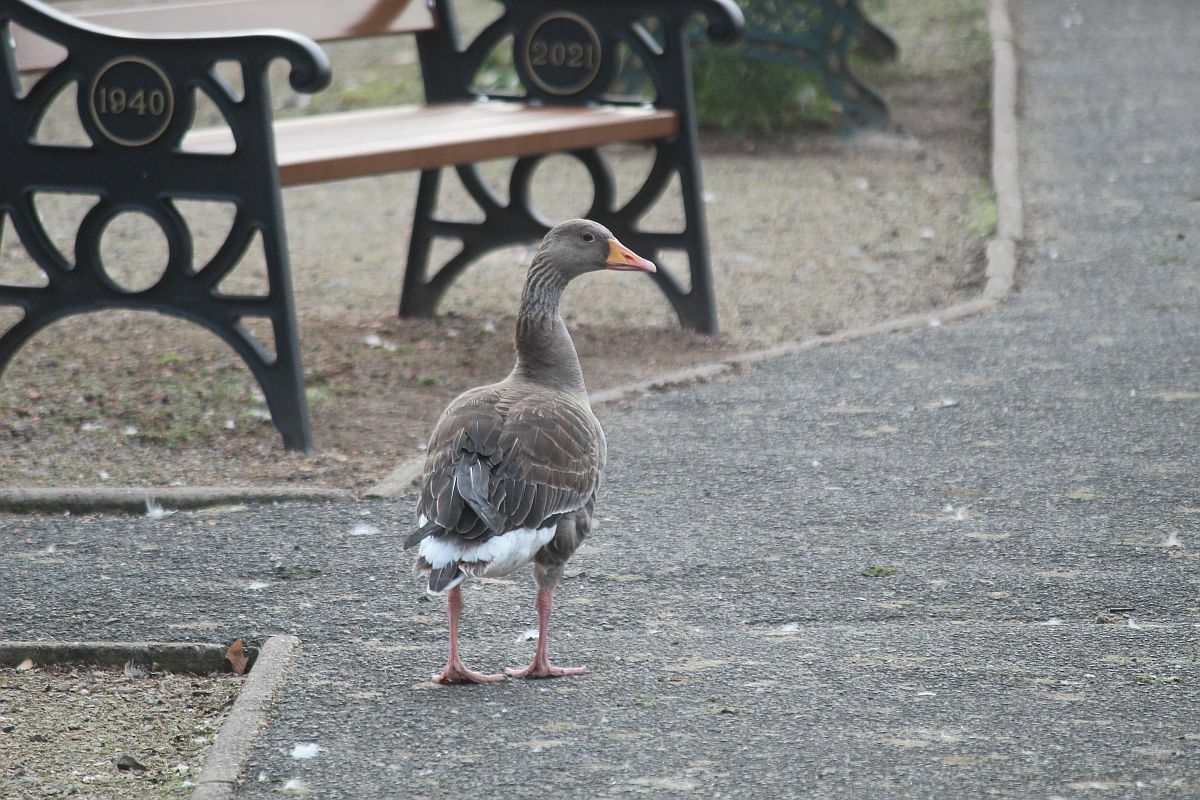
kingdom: Animalia
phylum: Chordata
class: Aves
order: Anseriformes
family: Anatidae
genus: Anser
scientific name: Anser anser
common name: Greylag goose
